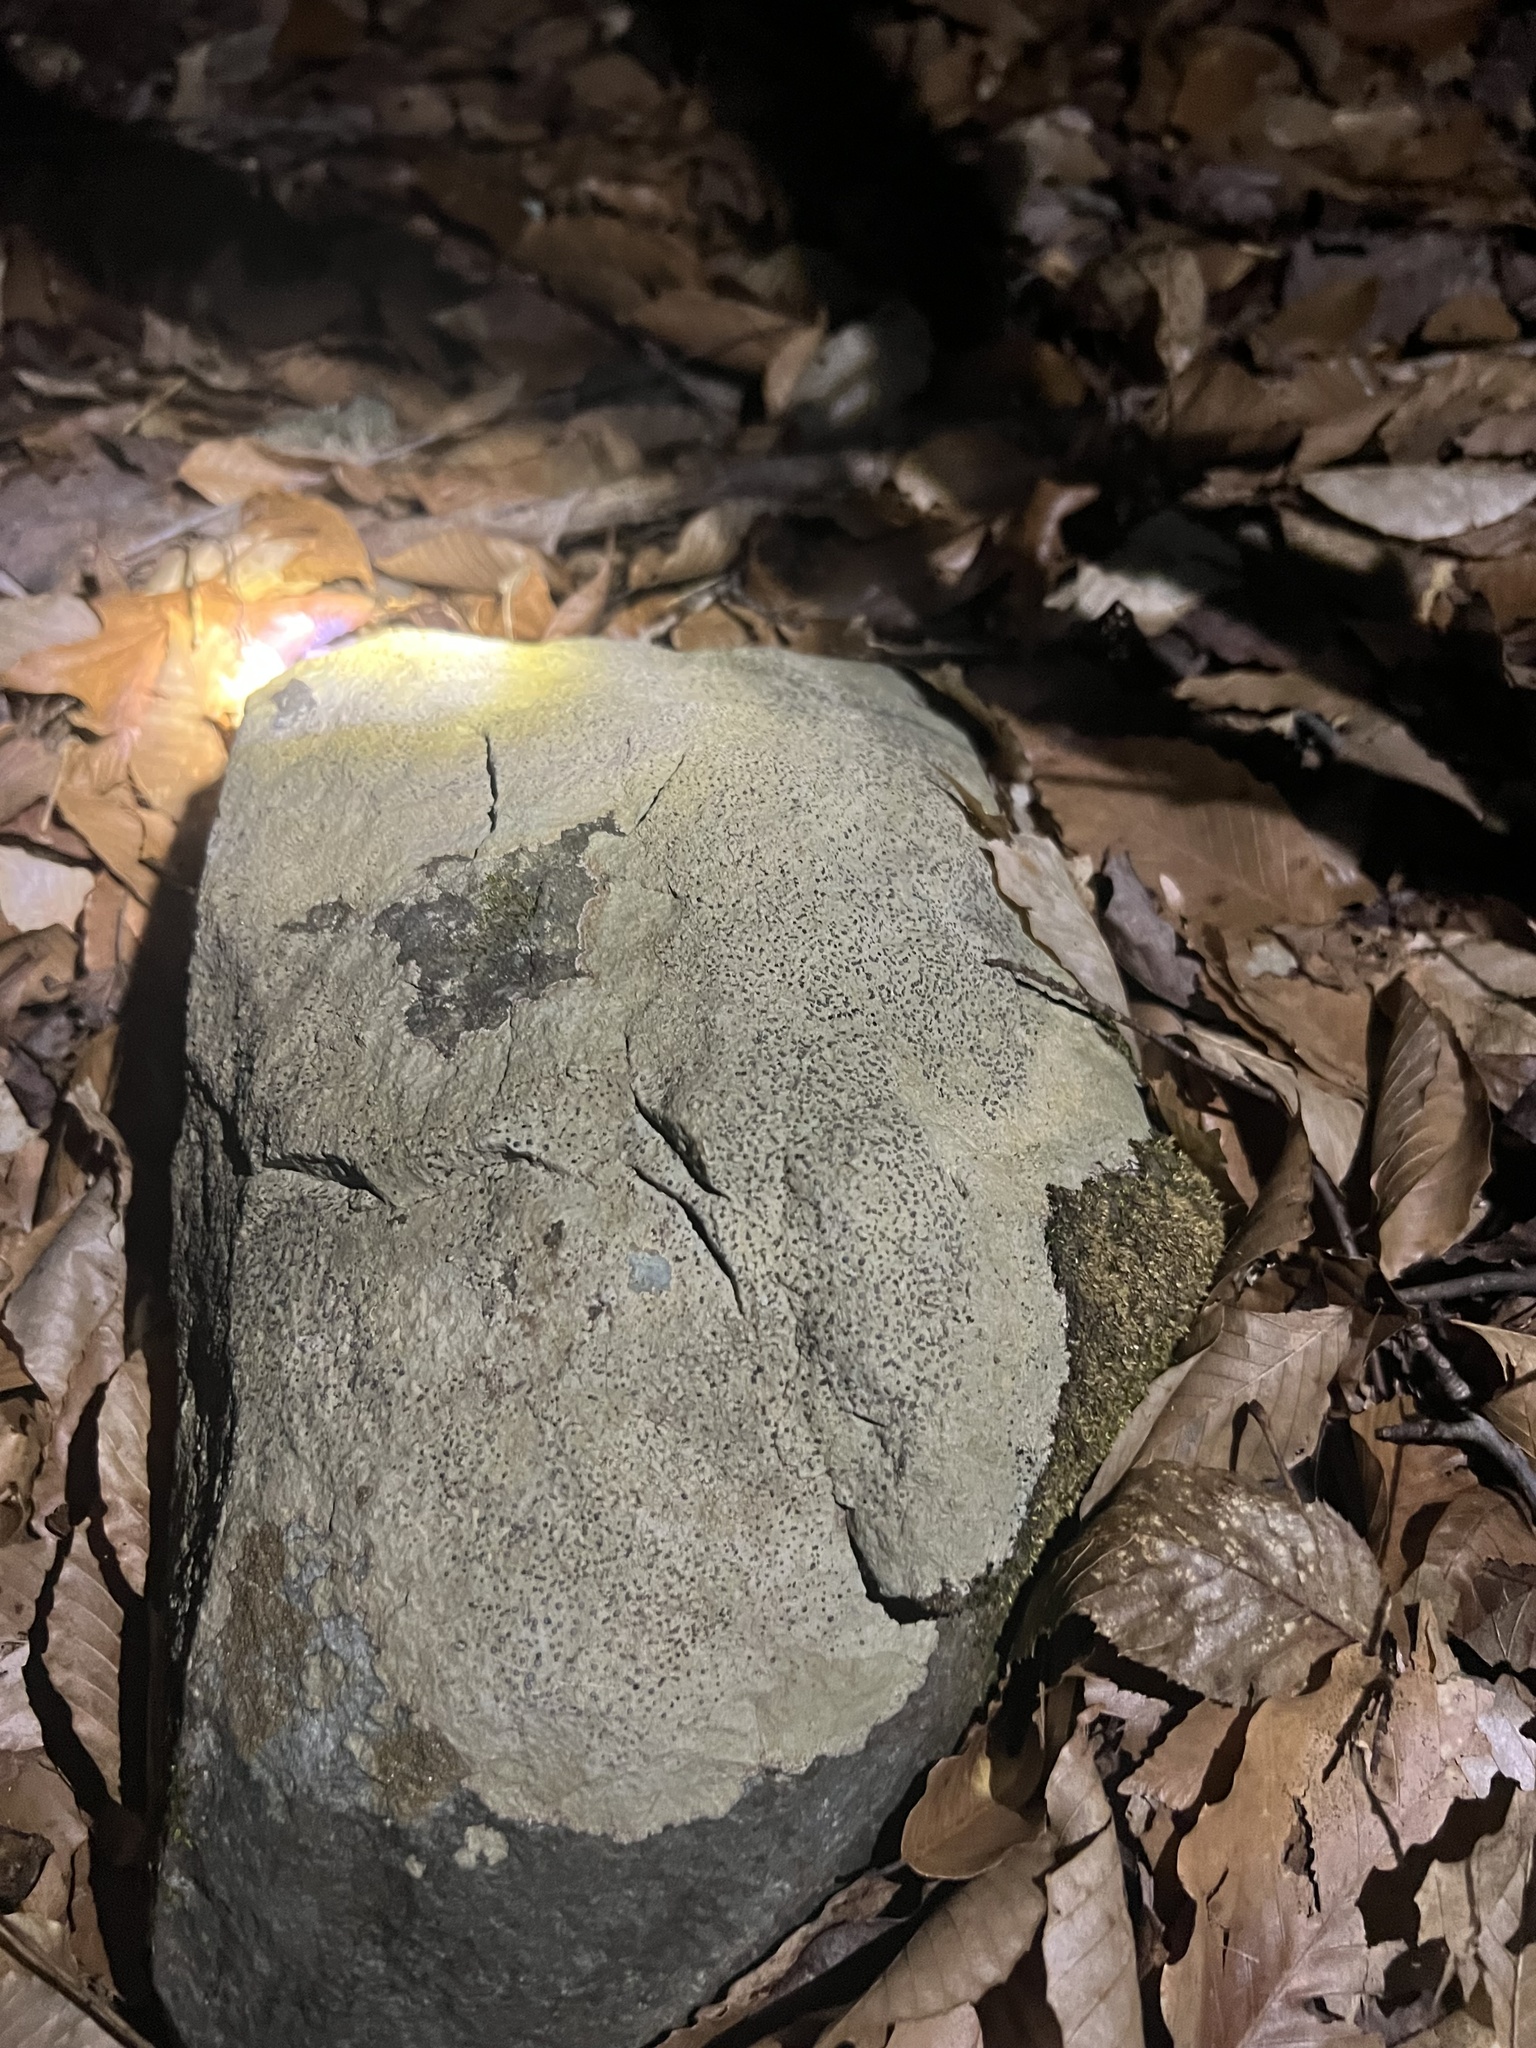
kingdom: Fungi
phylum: Ascomycota
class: Lecanoromycetes
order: Lecideales
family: Lecideaceae
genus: Porpidia
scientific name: Porpidia albocaerulescens
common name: Smokey-eyed boulder lichen
